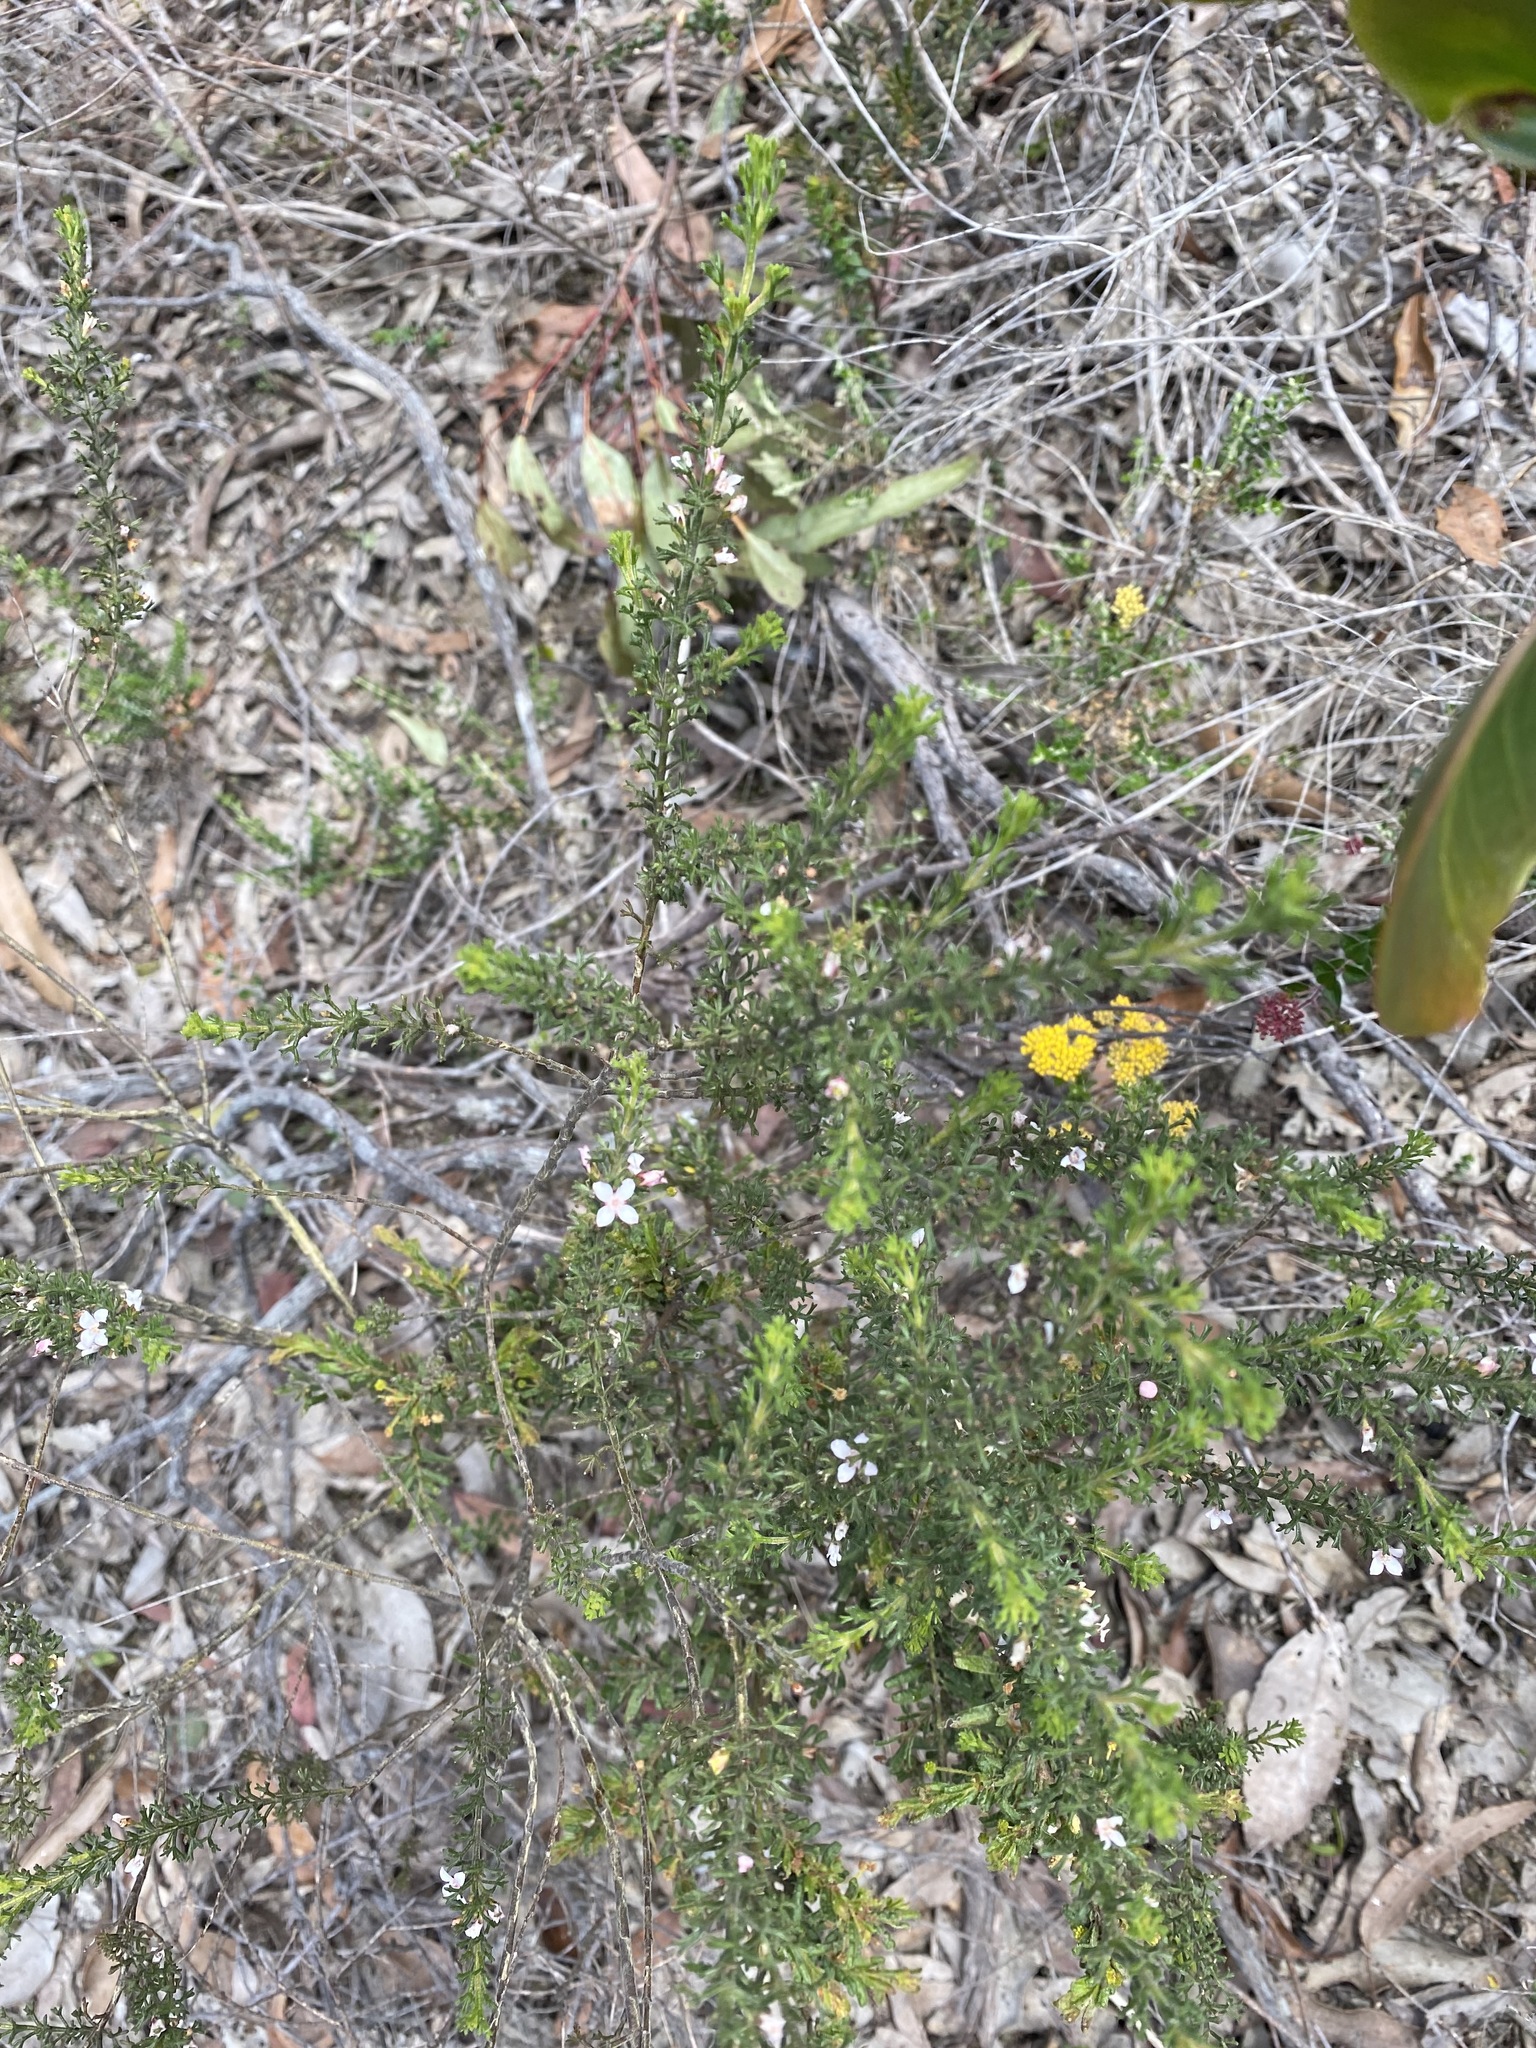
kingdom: Plantae
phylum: Tracheophyta
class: Magnoliopsida
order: Sapindales
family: Rutaceae
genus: Cyanothamnus
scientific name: Cyanothamnus anemonifolius
